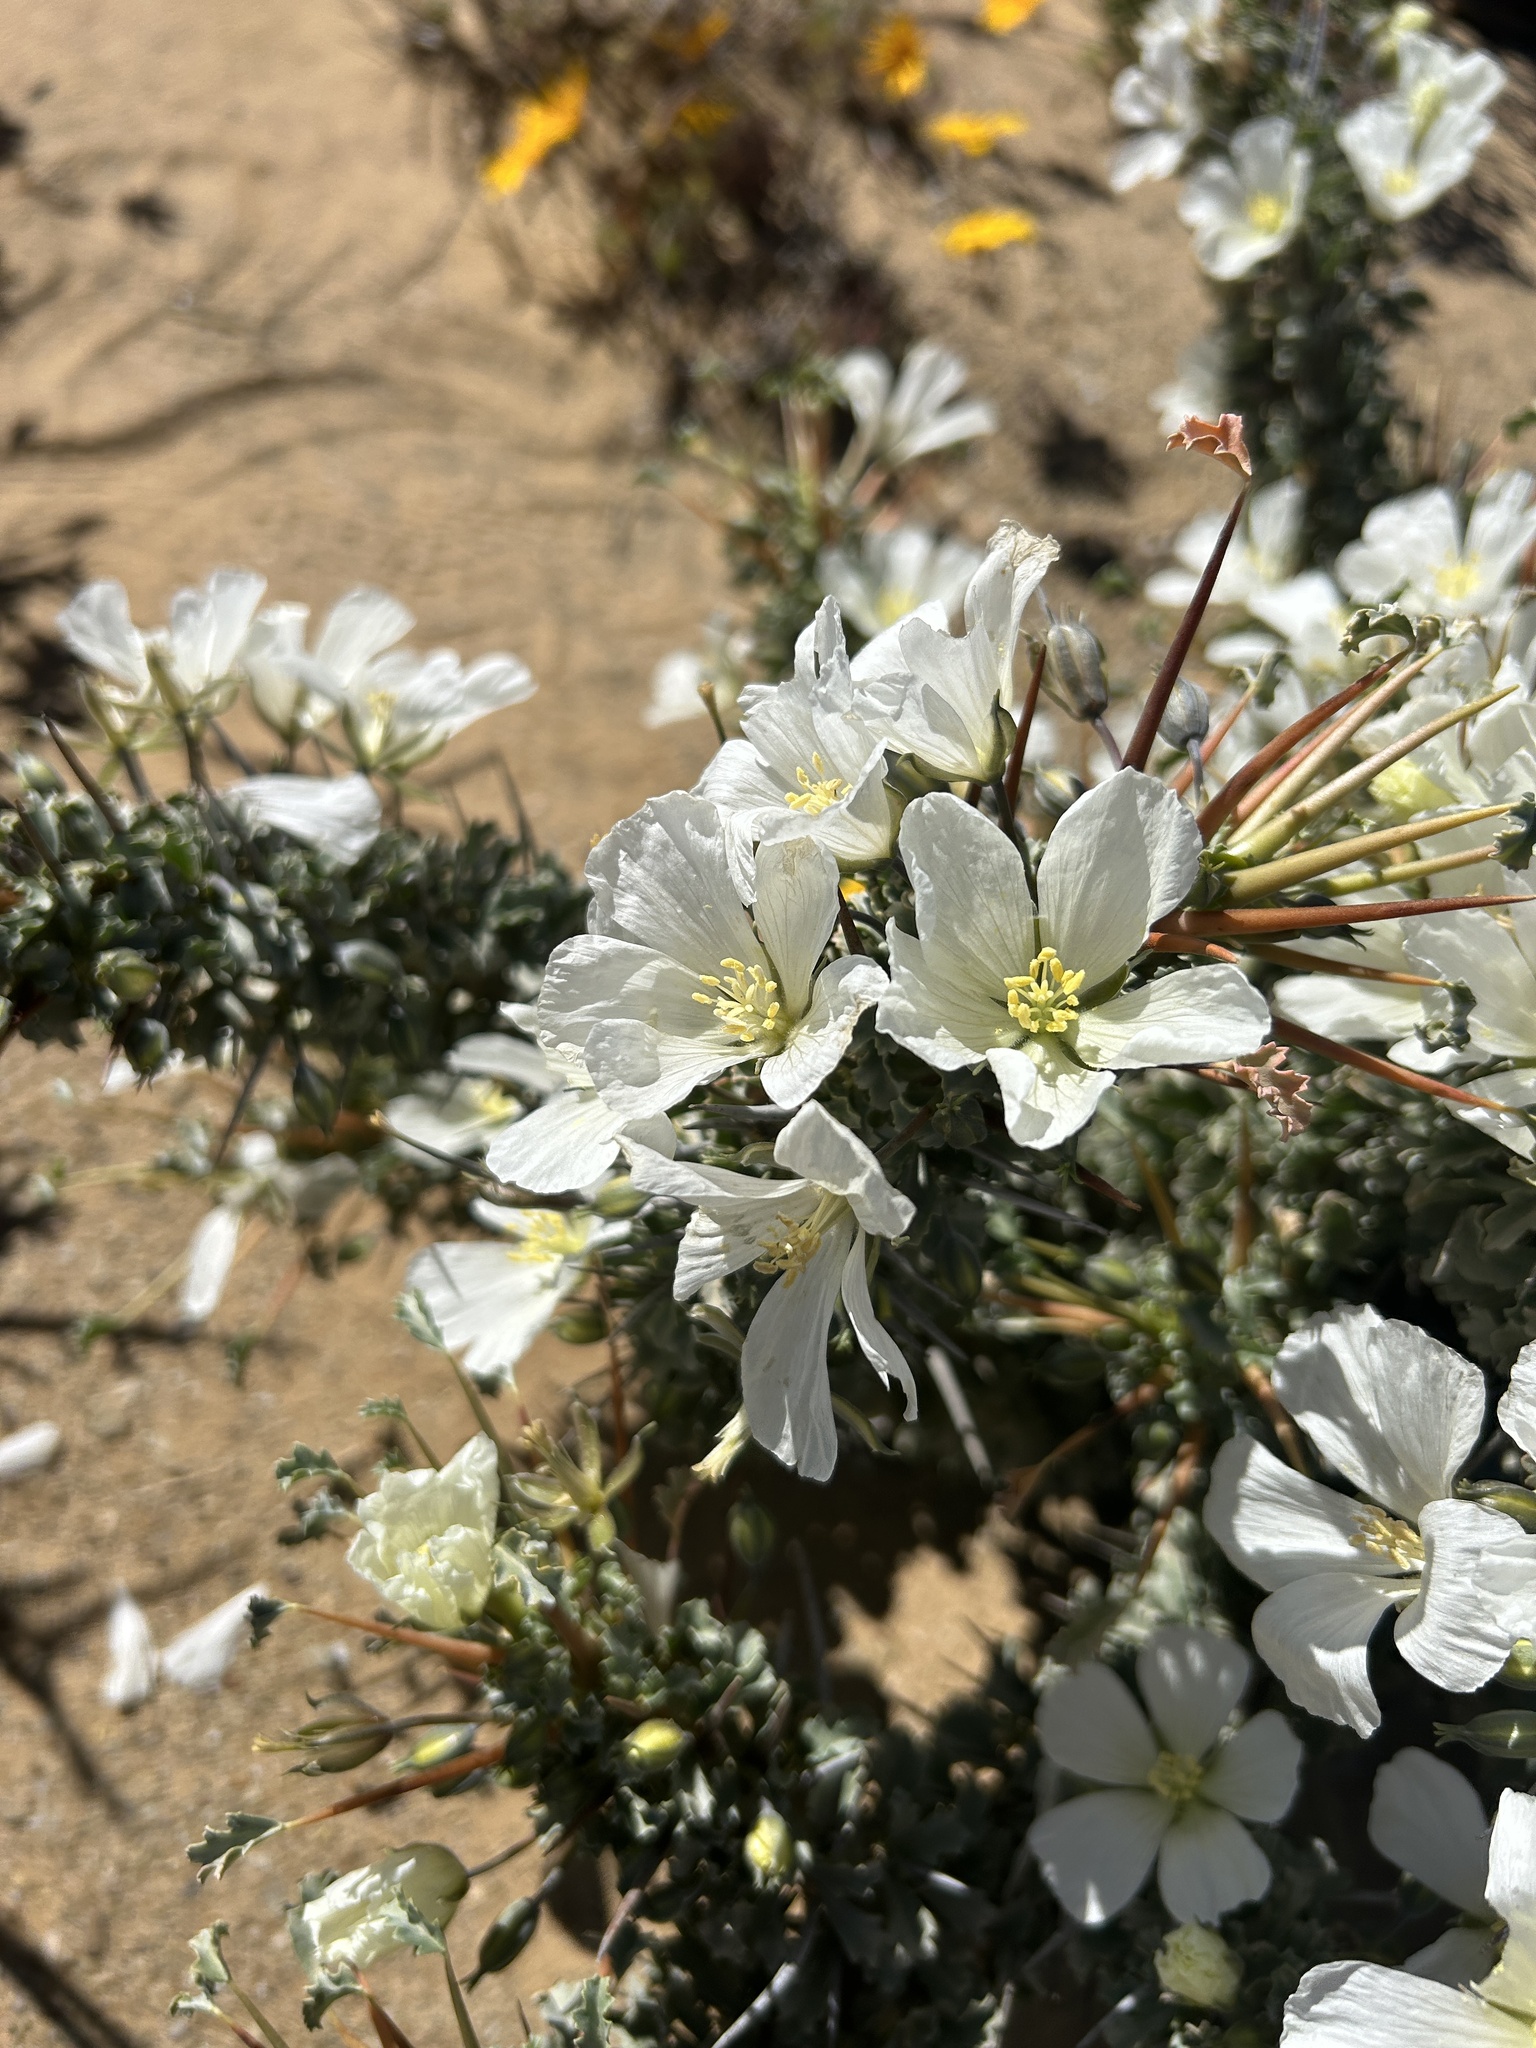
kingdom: Plantae
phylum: Tracheophyta
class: Magnoliopsida
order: Geraniales
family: Geraniaceae
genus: Monsonia
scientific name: Monsonia crassicaulis
